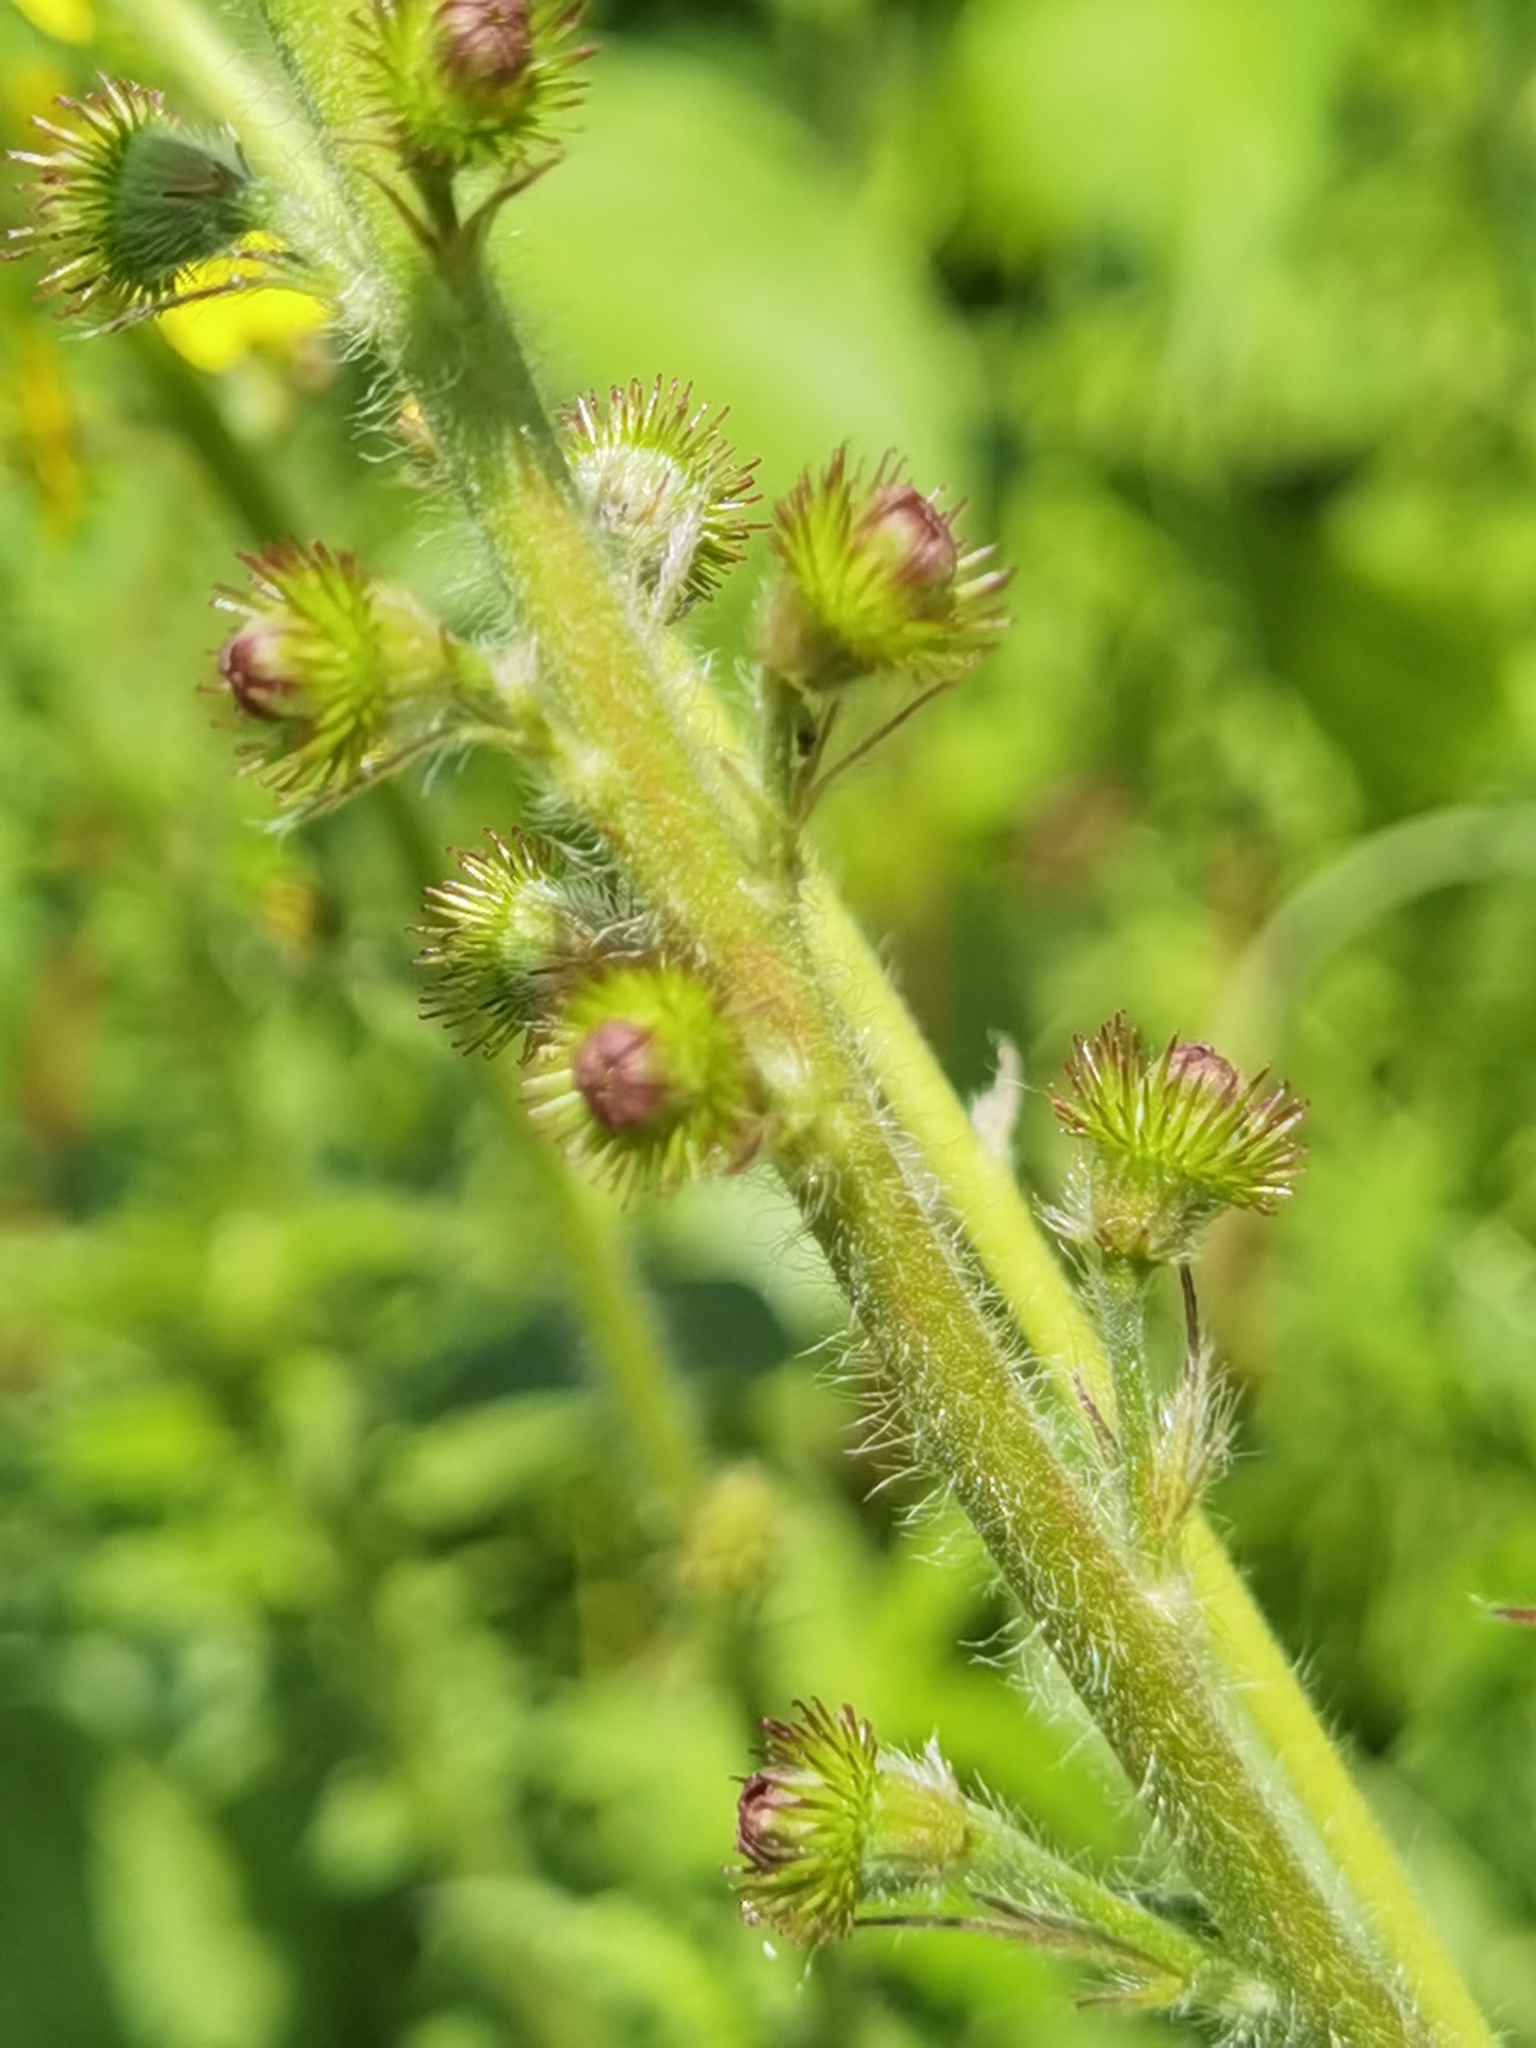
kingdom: Plantae
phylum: Tracheophyta
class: Magnoliopsida
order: Rosales
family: Rosaceae
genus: Agrimonia
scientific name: Agrimonia eupatoria
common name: Agrimony
